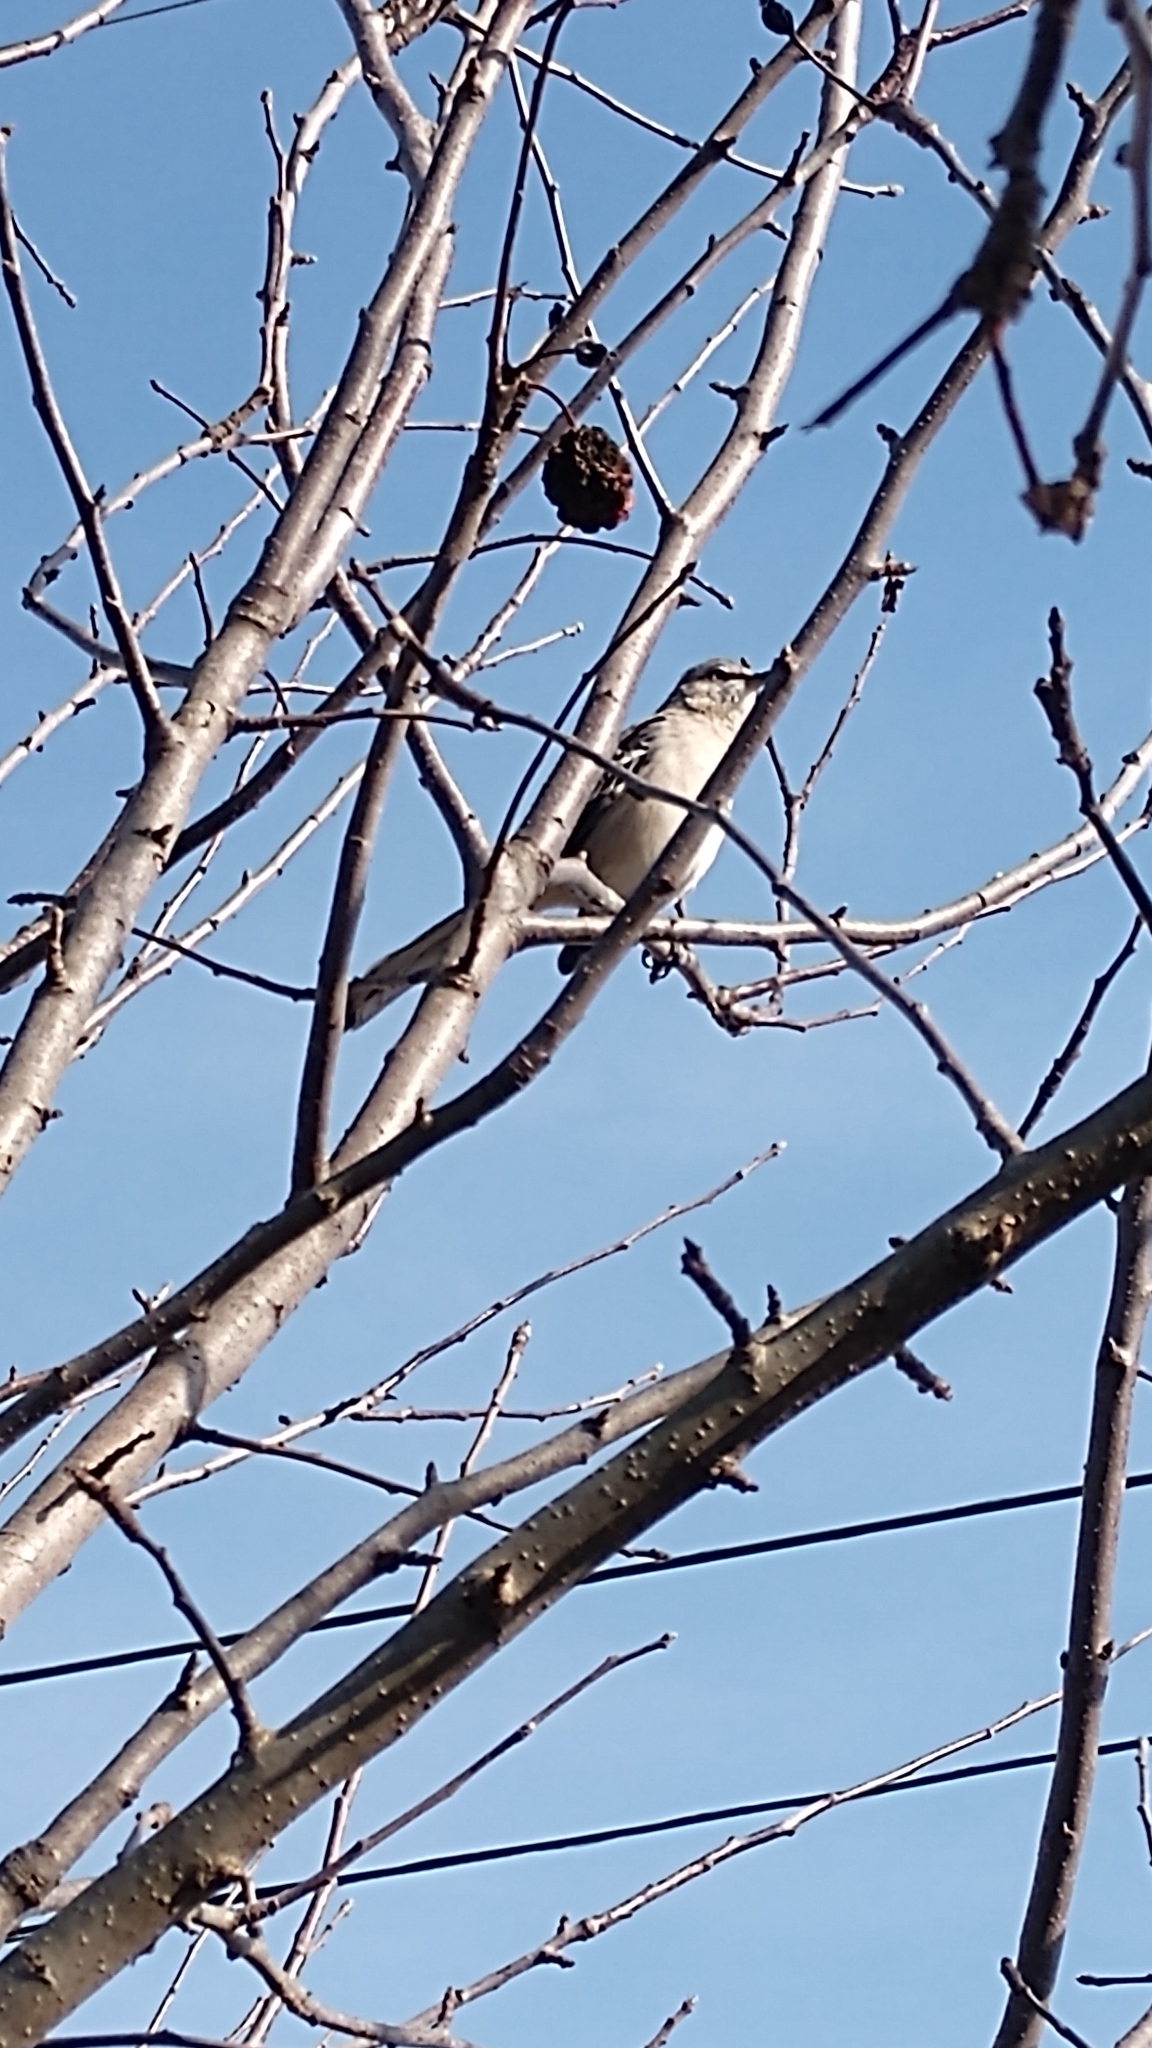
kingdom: Animalia
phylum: Chordata
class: Aves
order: Passeriformes
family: Mimidae
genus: Mimus
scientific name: Mimus polyglottos
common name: Northern mockingbird
